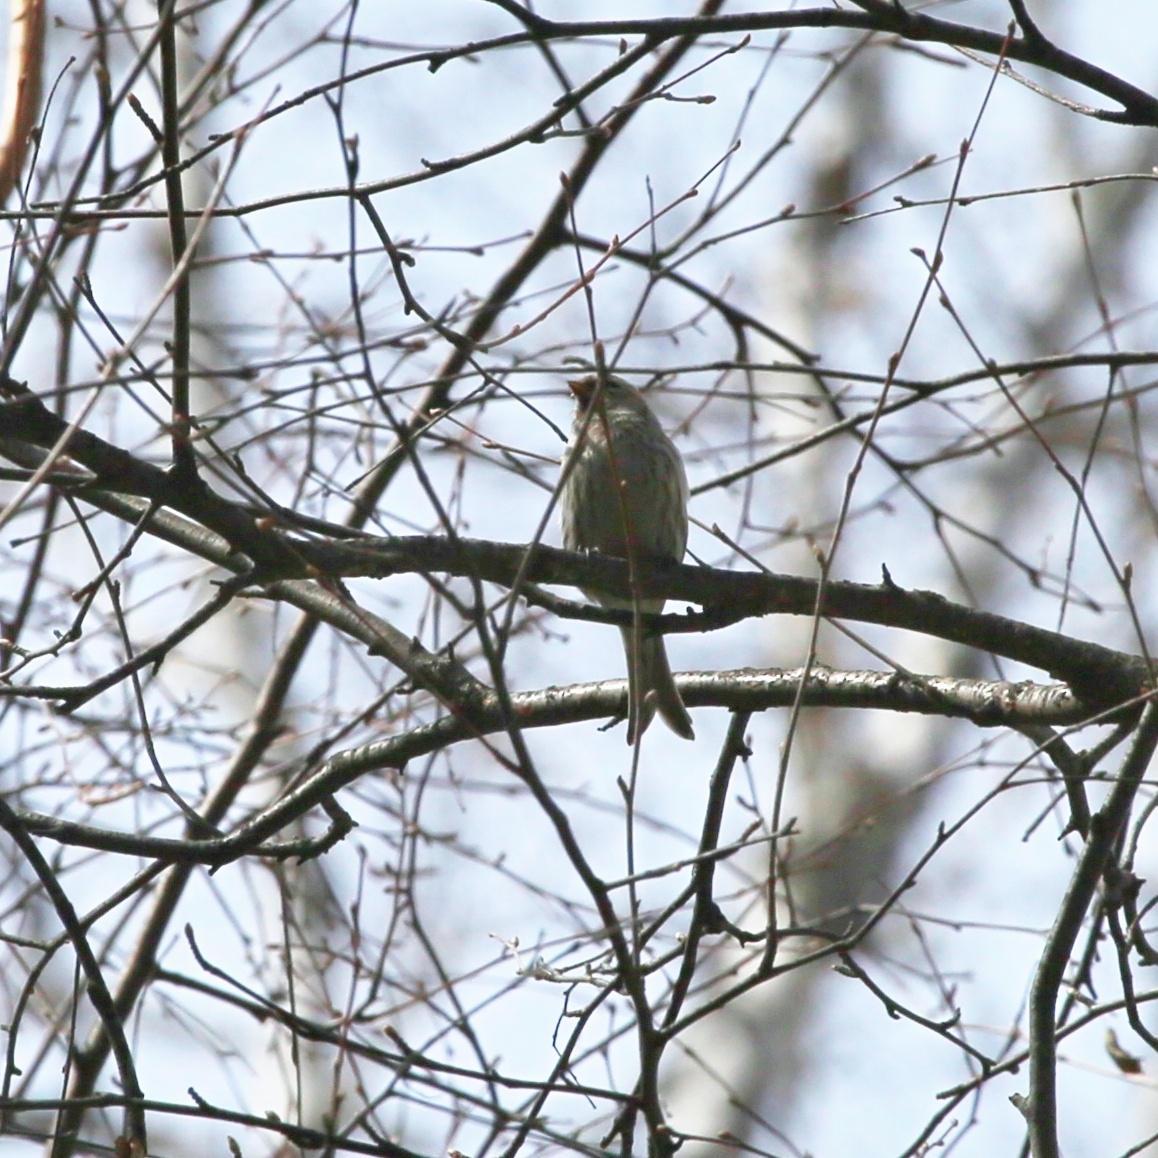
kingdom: Plantae
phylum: Tracheophyta
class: Liliopsida
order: Poales
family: Poaceae
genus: Chloris
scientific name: Chloris chloris
